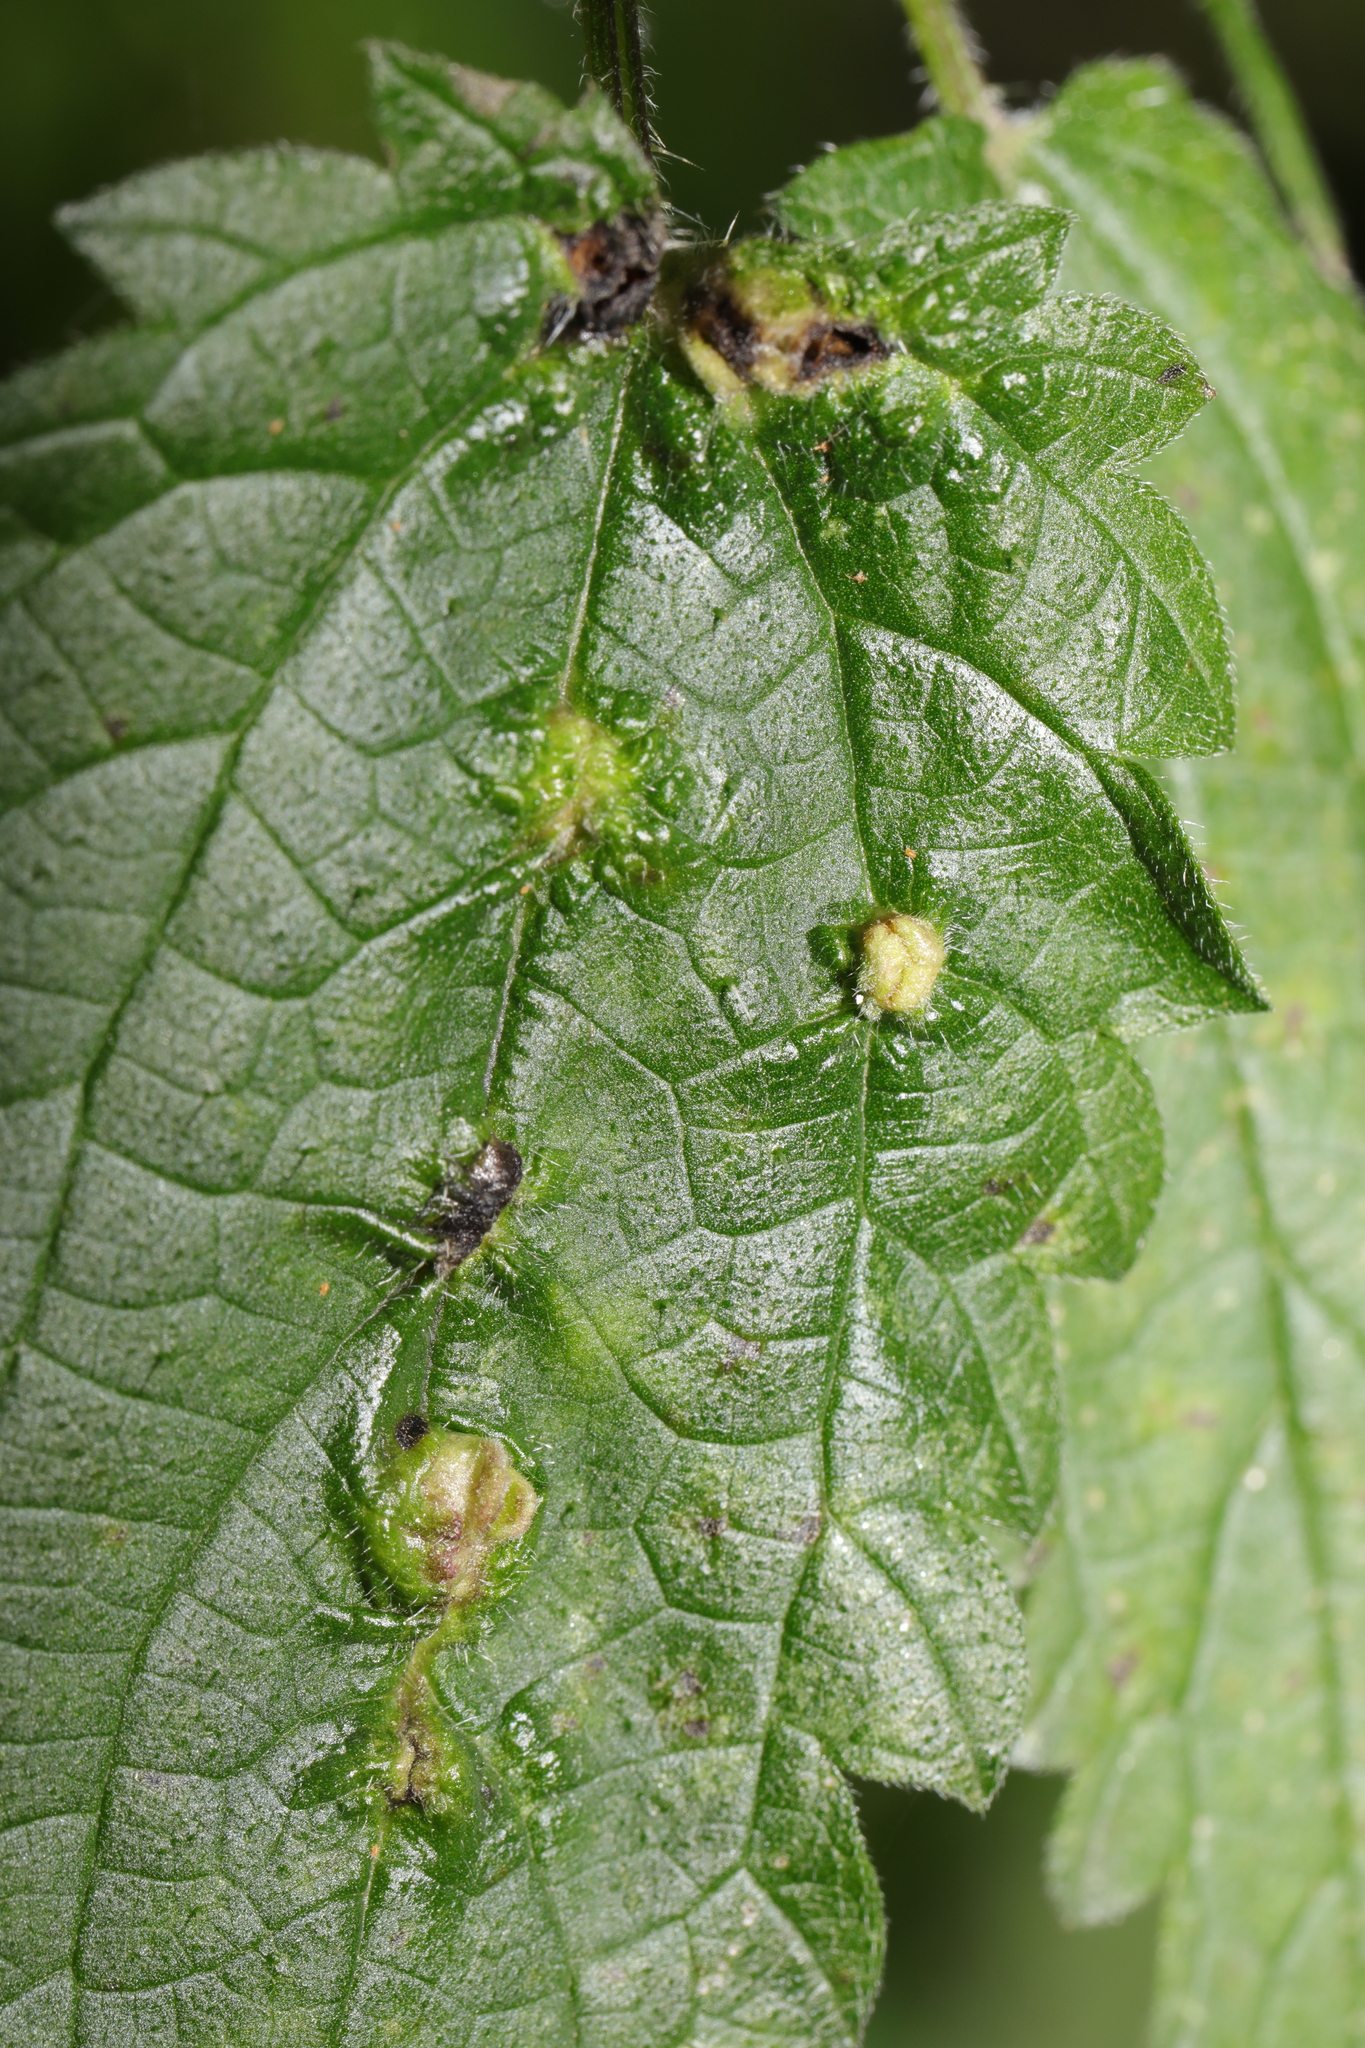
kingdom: Animalia
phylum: Arthropoda
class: Insecta
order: Diptera
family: Cecidomyiidae
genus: Dasineura
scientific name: Dasineura urticae
